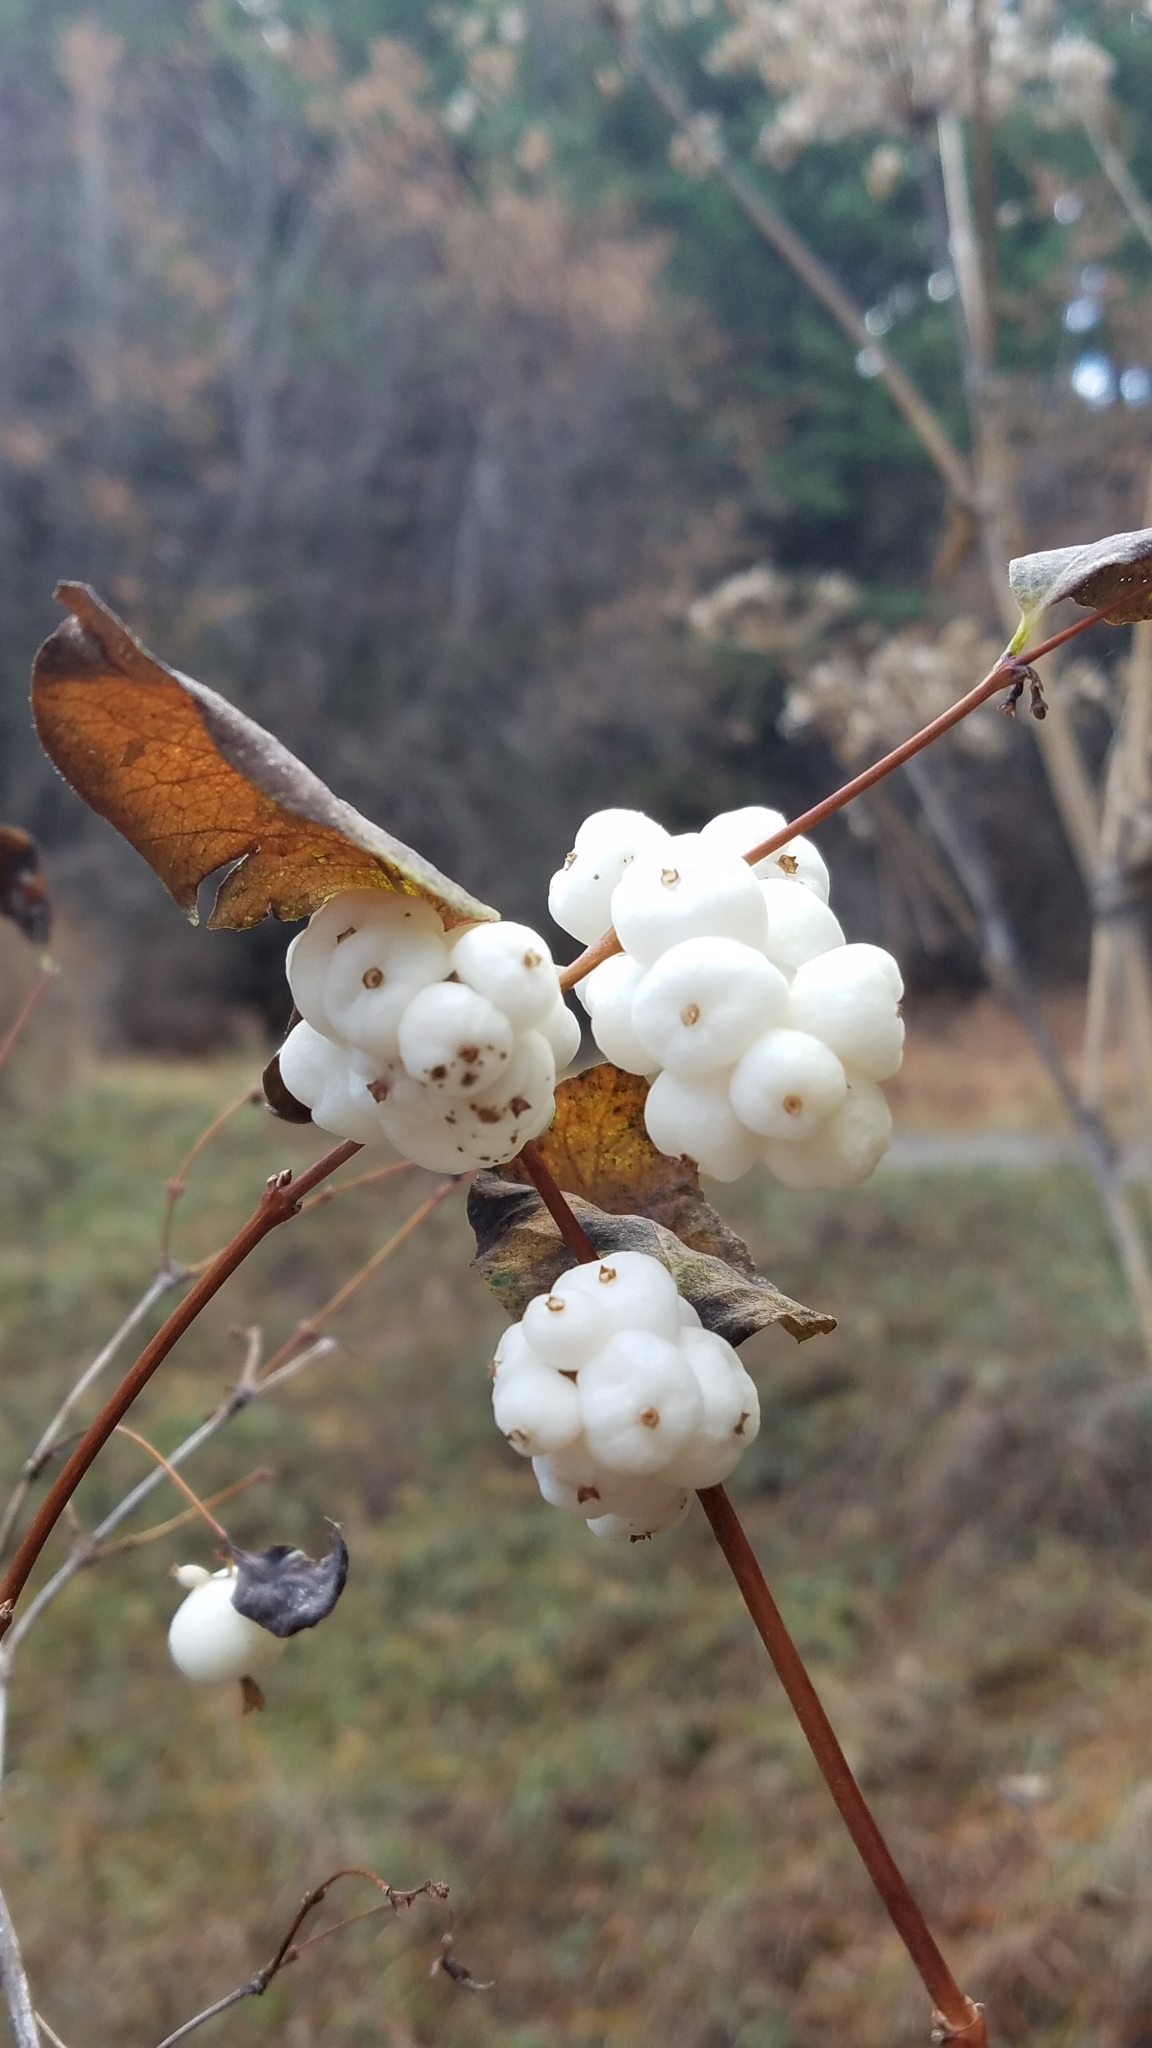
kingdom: Plantae
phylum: Tracheophyta
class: Magnoliopsida
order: Dipsacales
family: Caprifoliaceae
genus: Symphoricarpos
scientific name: Symphoricarpos albus
